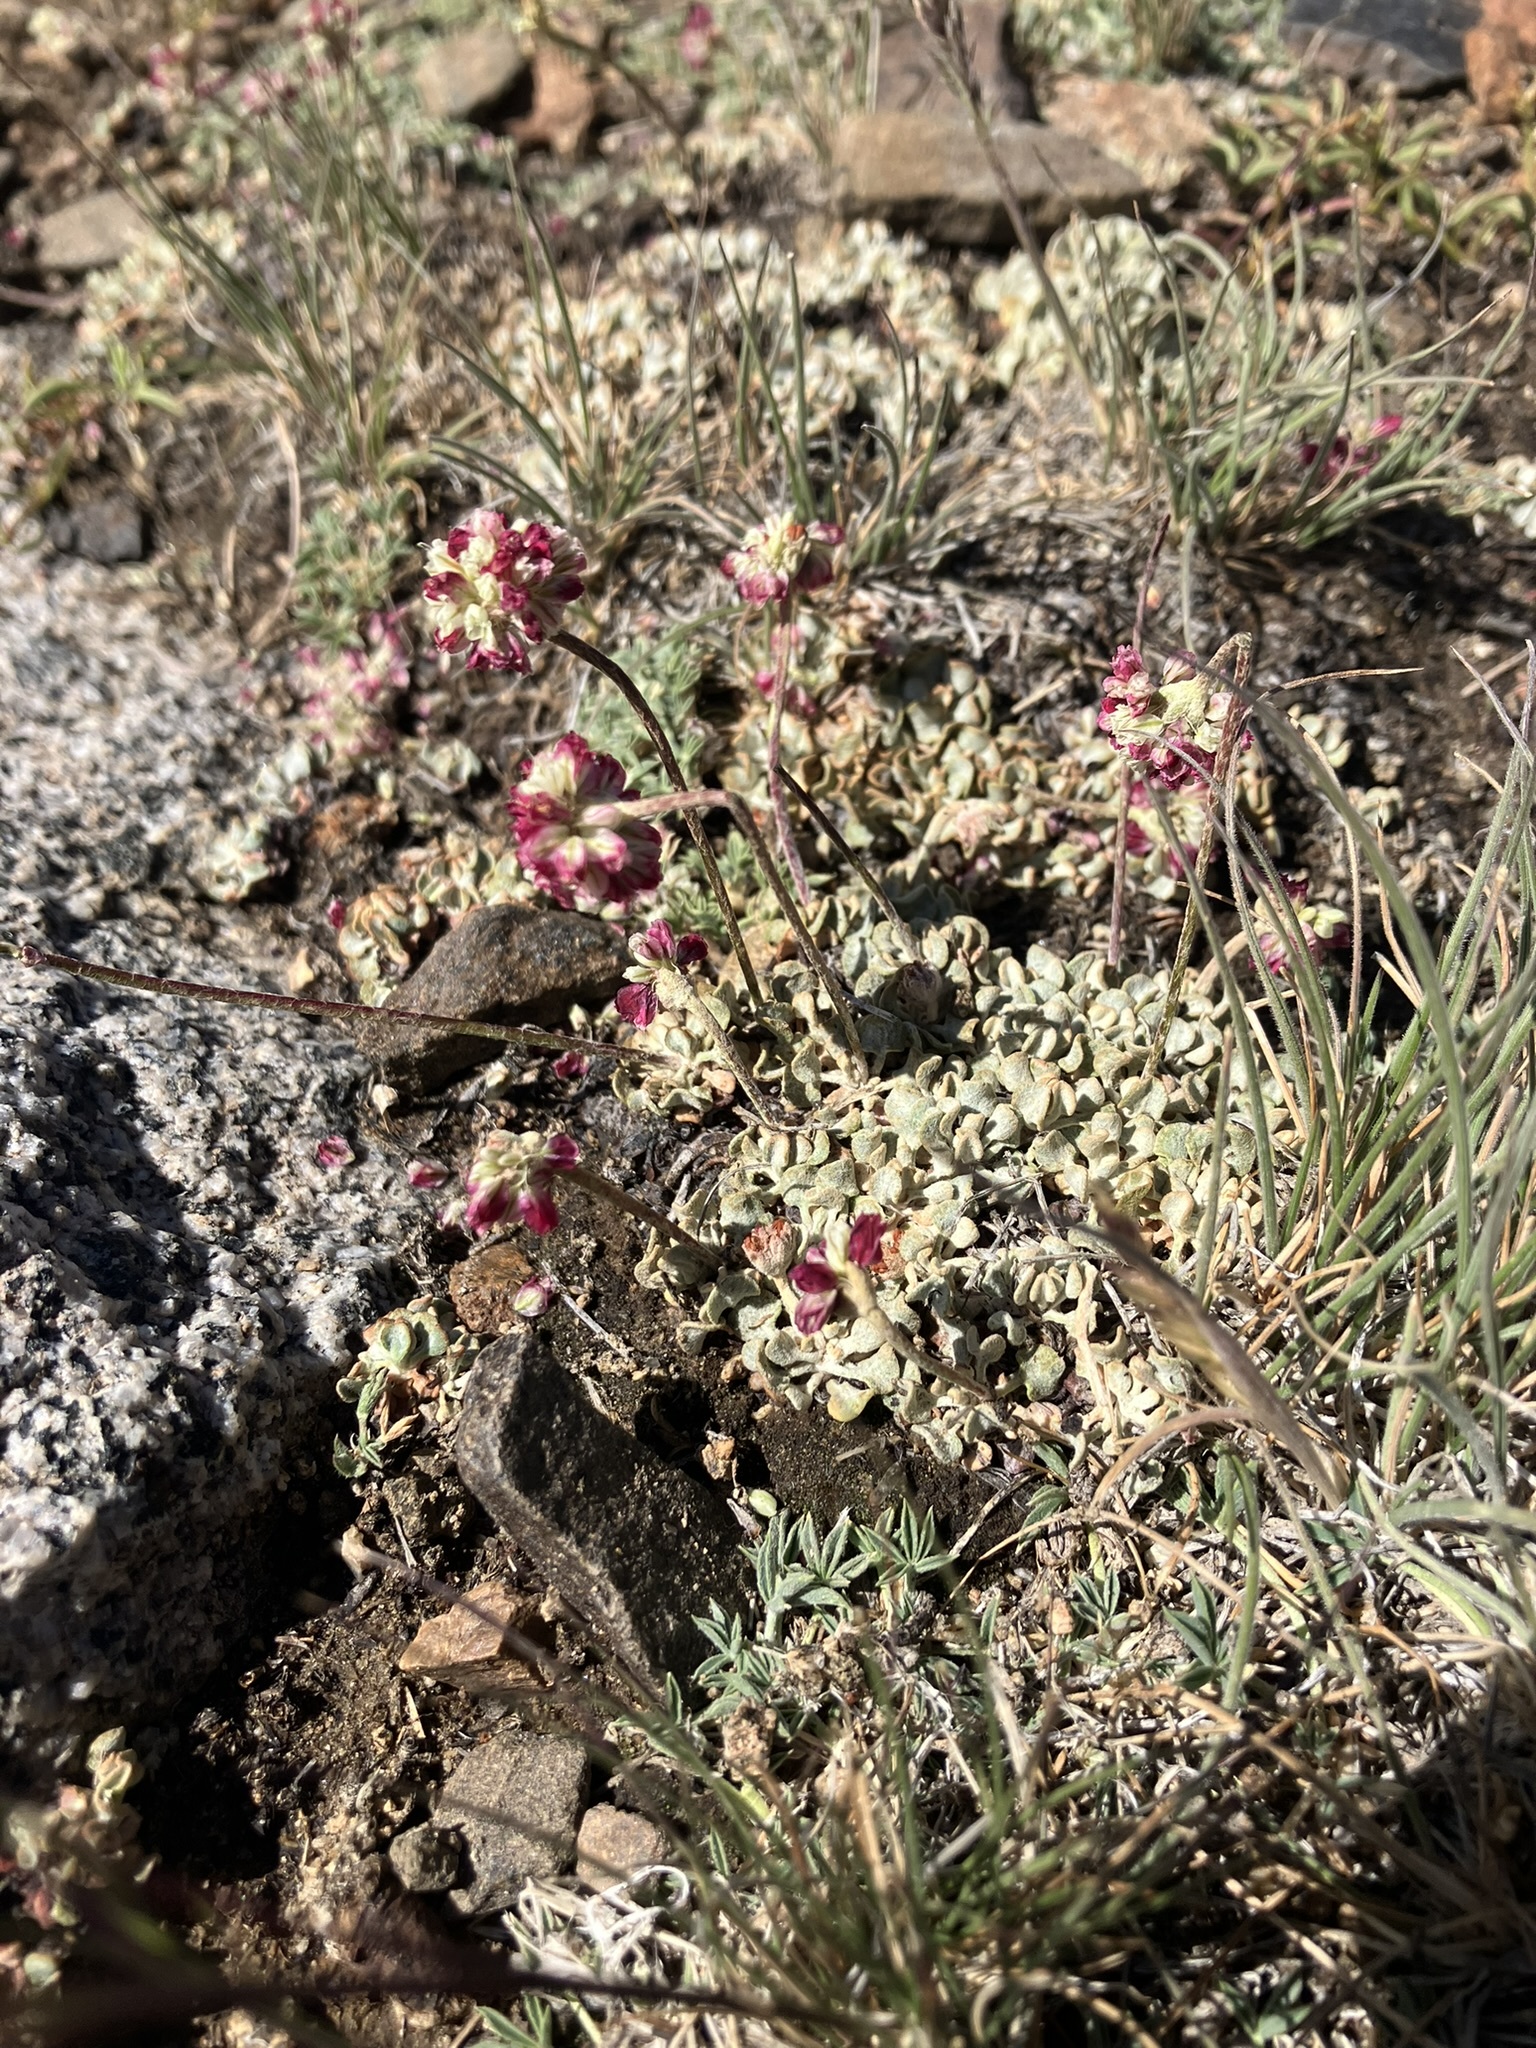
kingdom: Plantae
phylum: Tracheophyta
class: Magnoliopsida
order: Caryophyllales
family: Polygonaceae
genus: Eriogonum
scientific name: Eriogonum ovalifolium
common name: Cushion buckwheat
